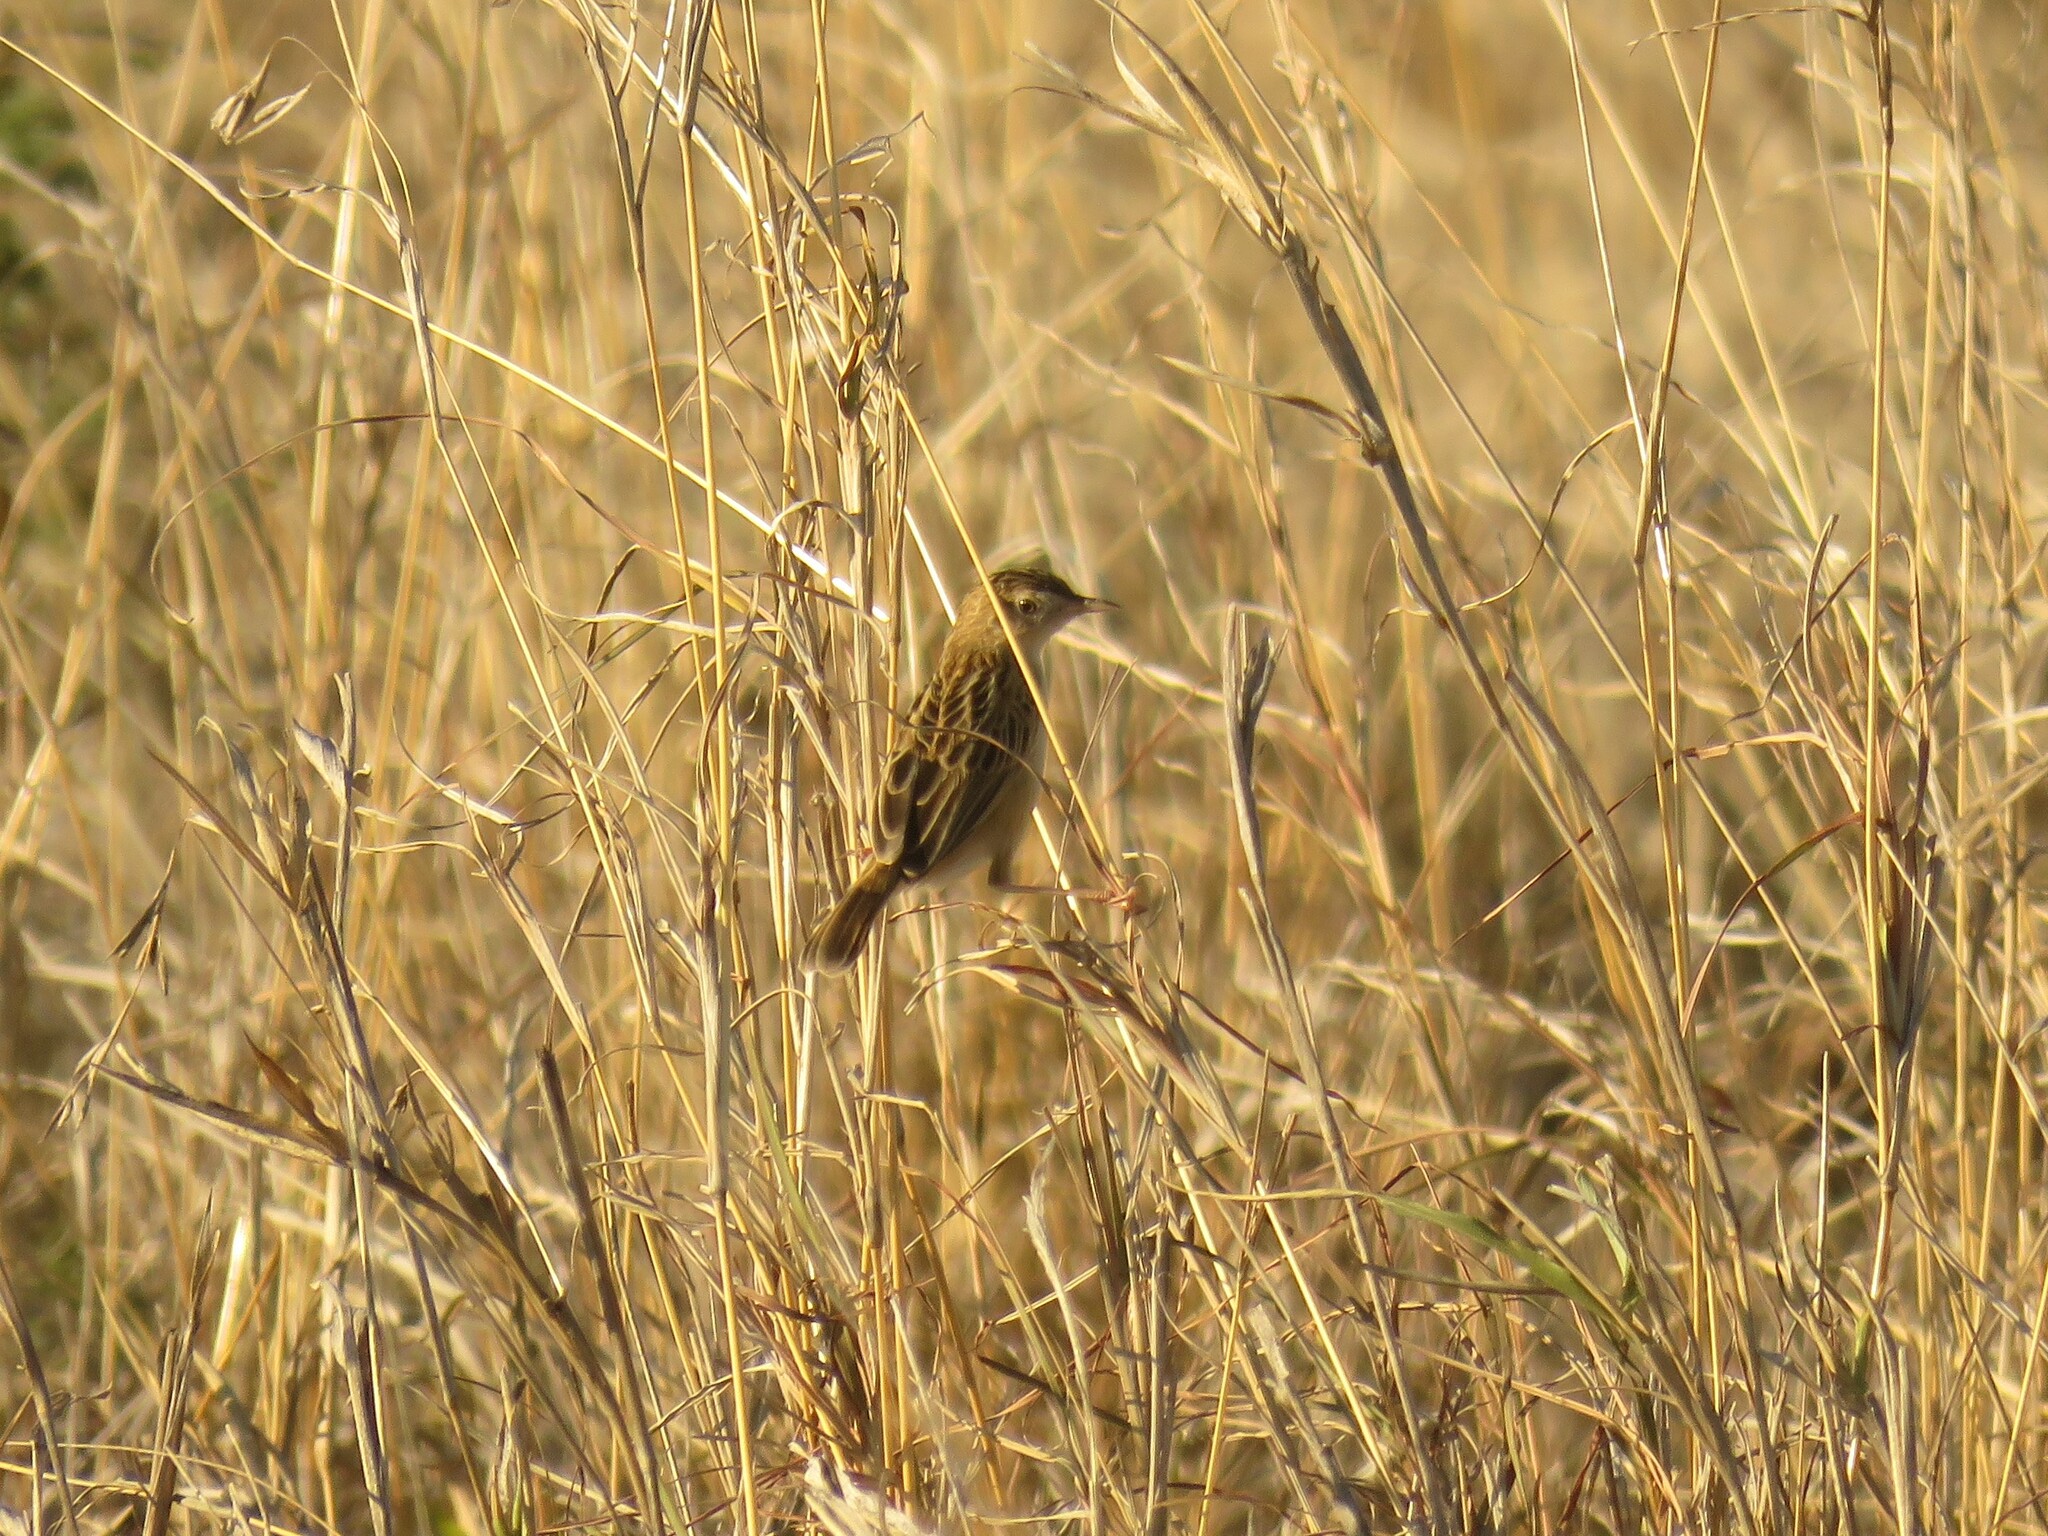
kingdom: Animalia
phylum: Chordata
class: Aves
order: Passeriformes
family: Cisticolidae
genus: Cisticola
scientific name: Cisticola aridulus
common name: Desert cisticola
